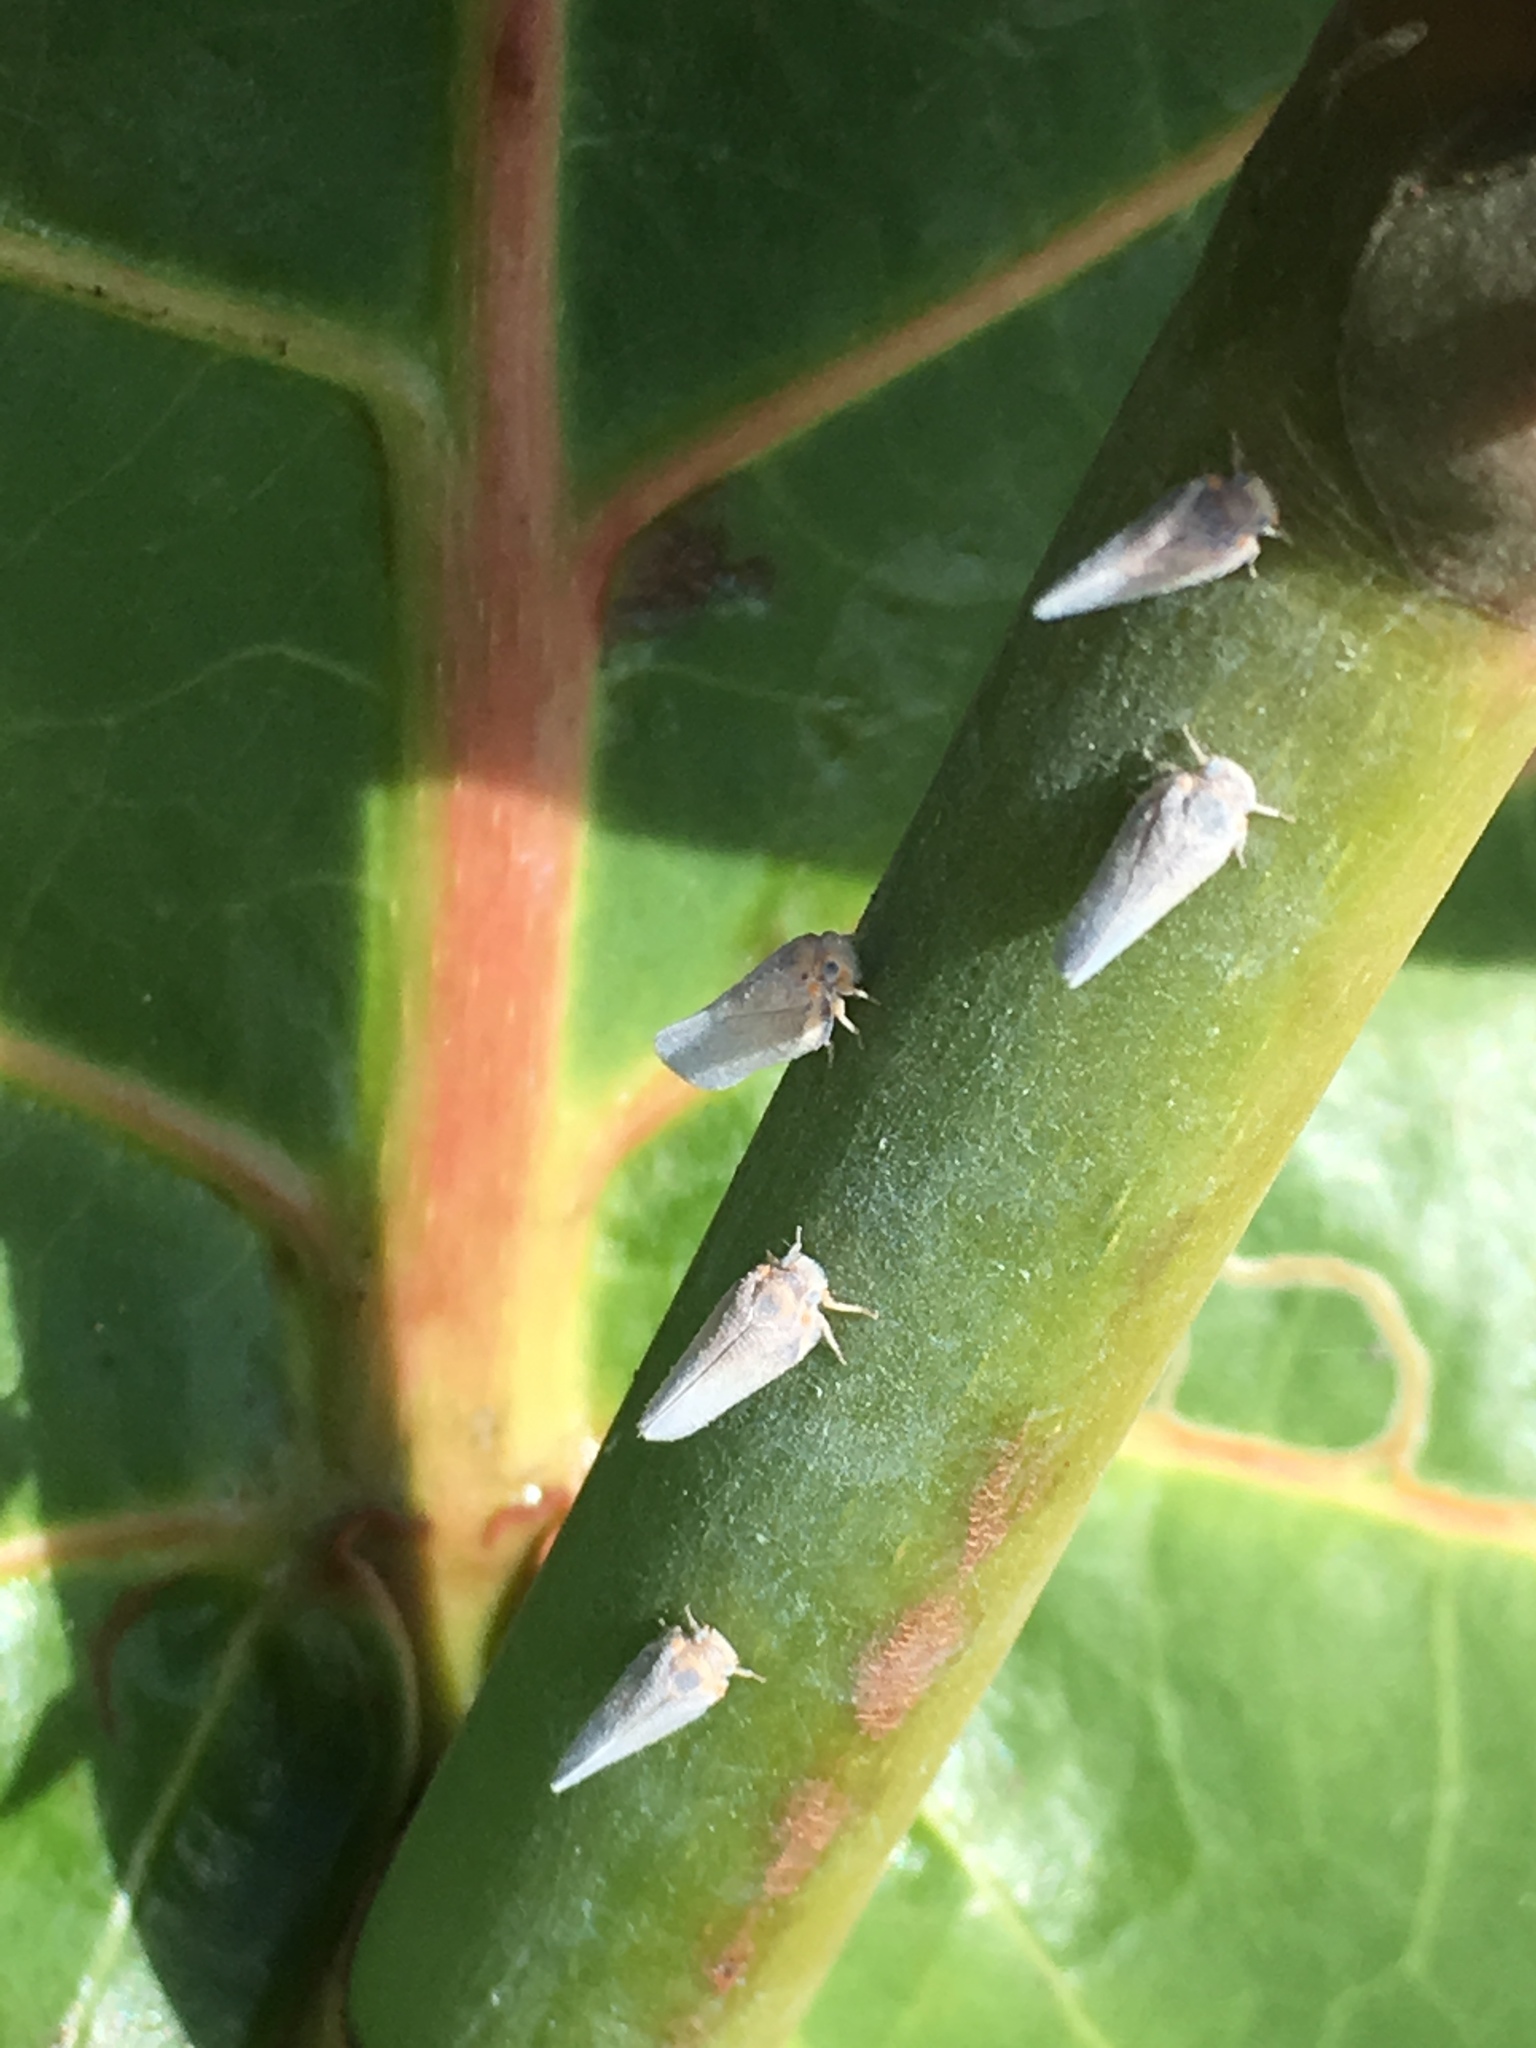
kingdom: Animalia
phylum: Arthropoda
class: Insecta
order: Hemiptera
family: Flatidae
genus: Petrusa
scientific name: Petrusa epilepsis
